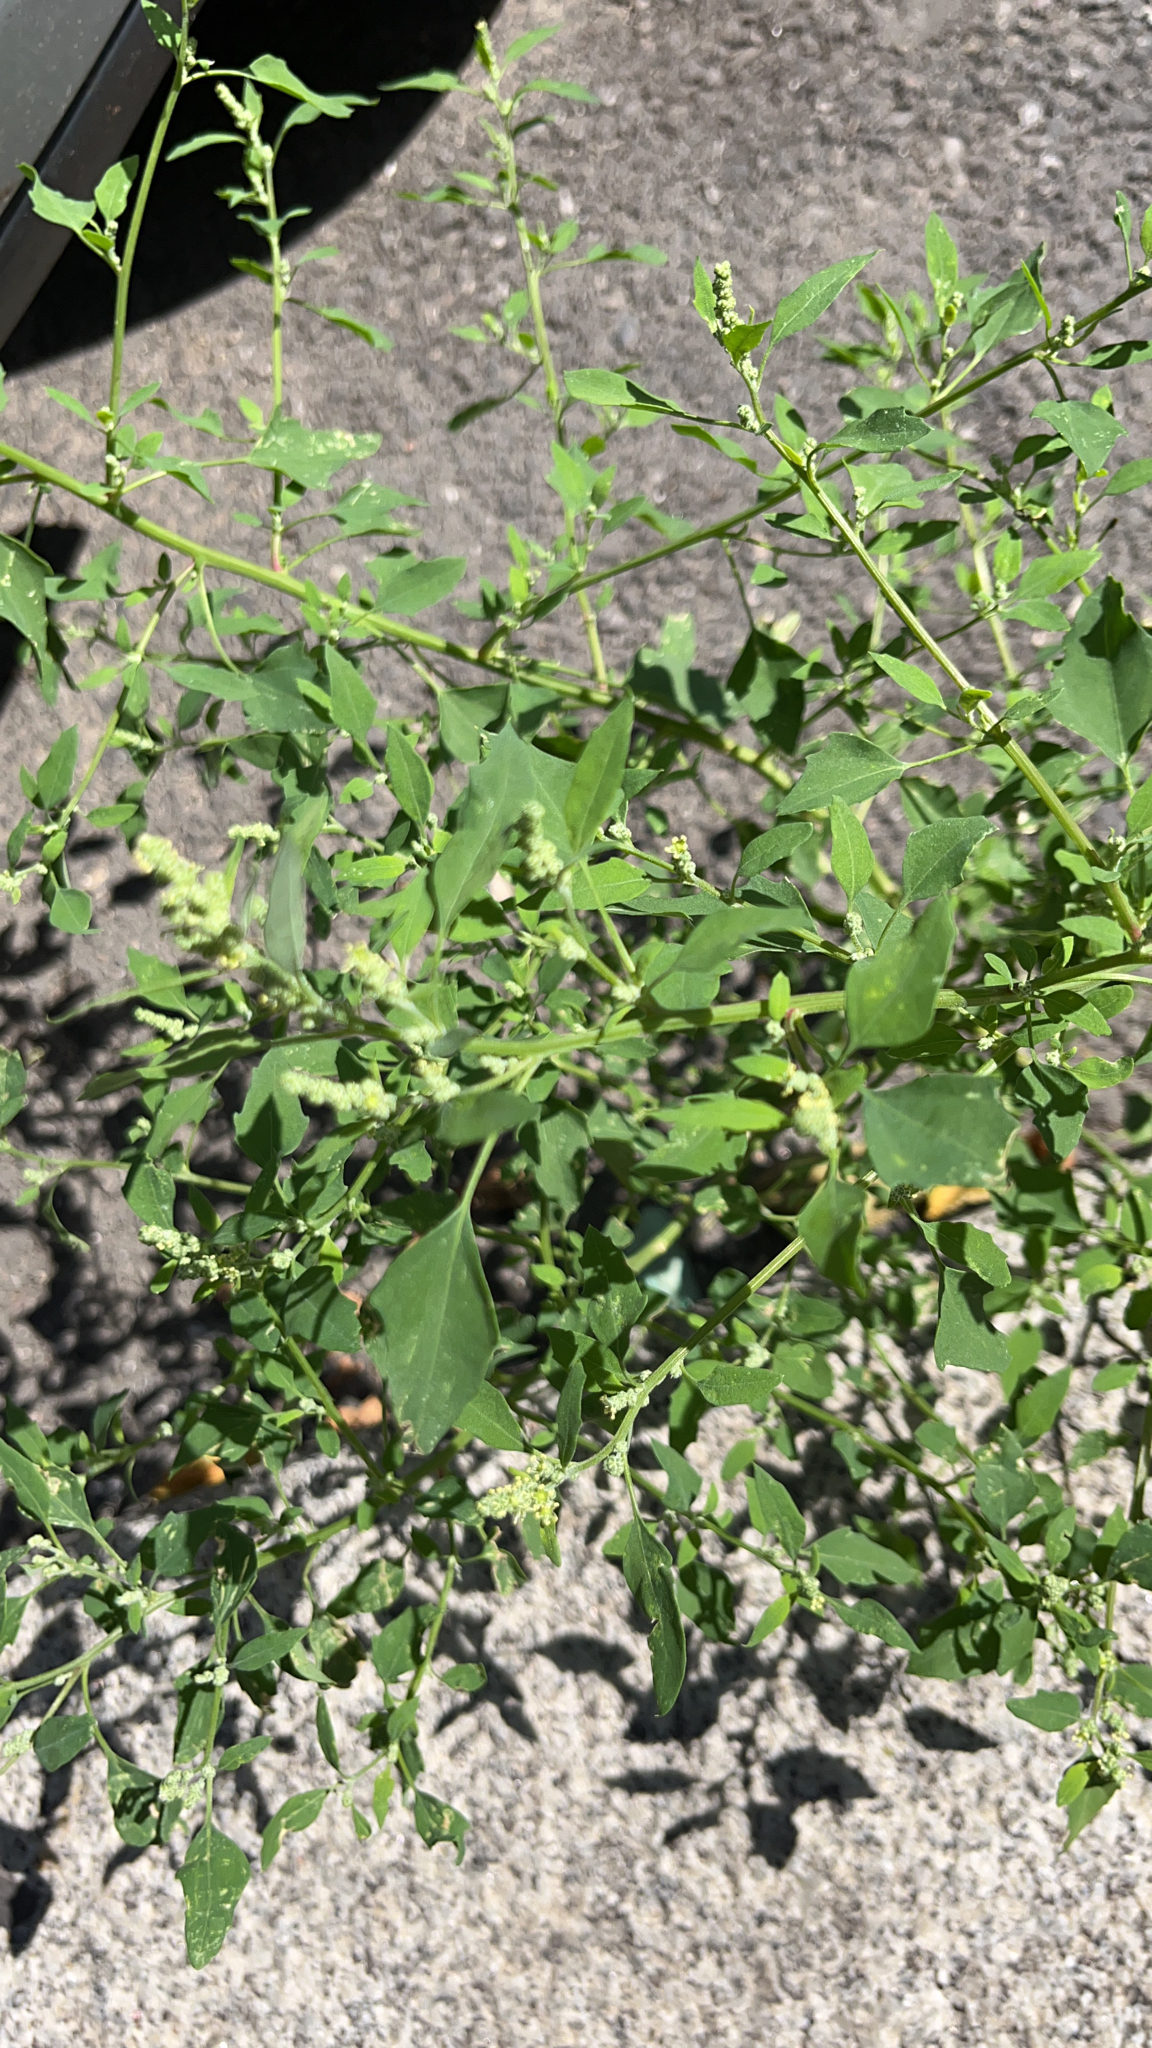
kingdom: Plantae
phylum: Tracheophyta
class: Magnoliopsida
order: Caryophyllales
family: Amaranthaceae
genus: Chenopodium
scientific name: Chenopodium album
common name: Fat-hen
